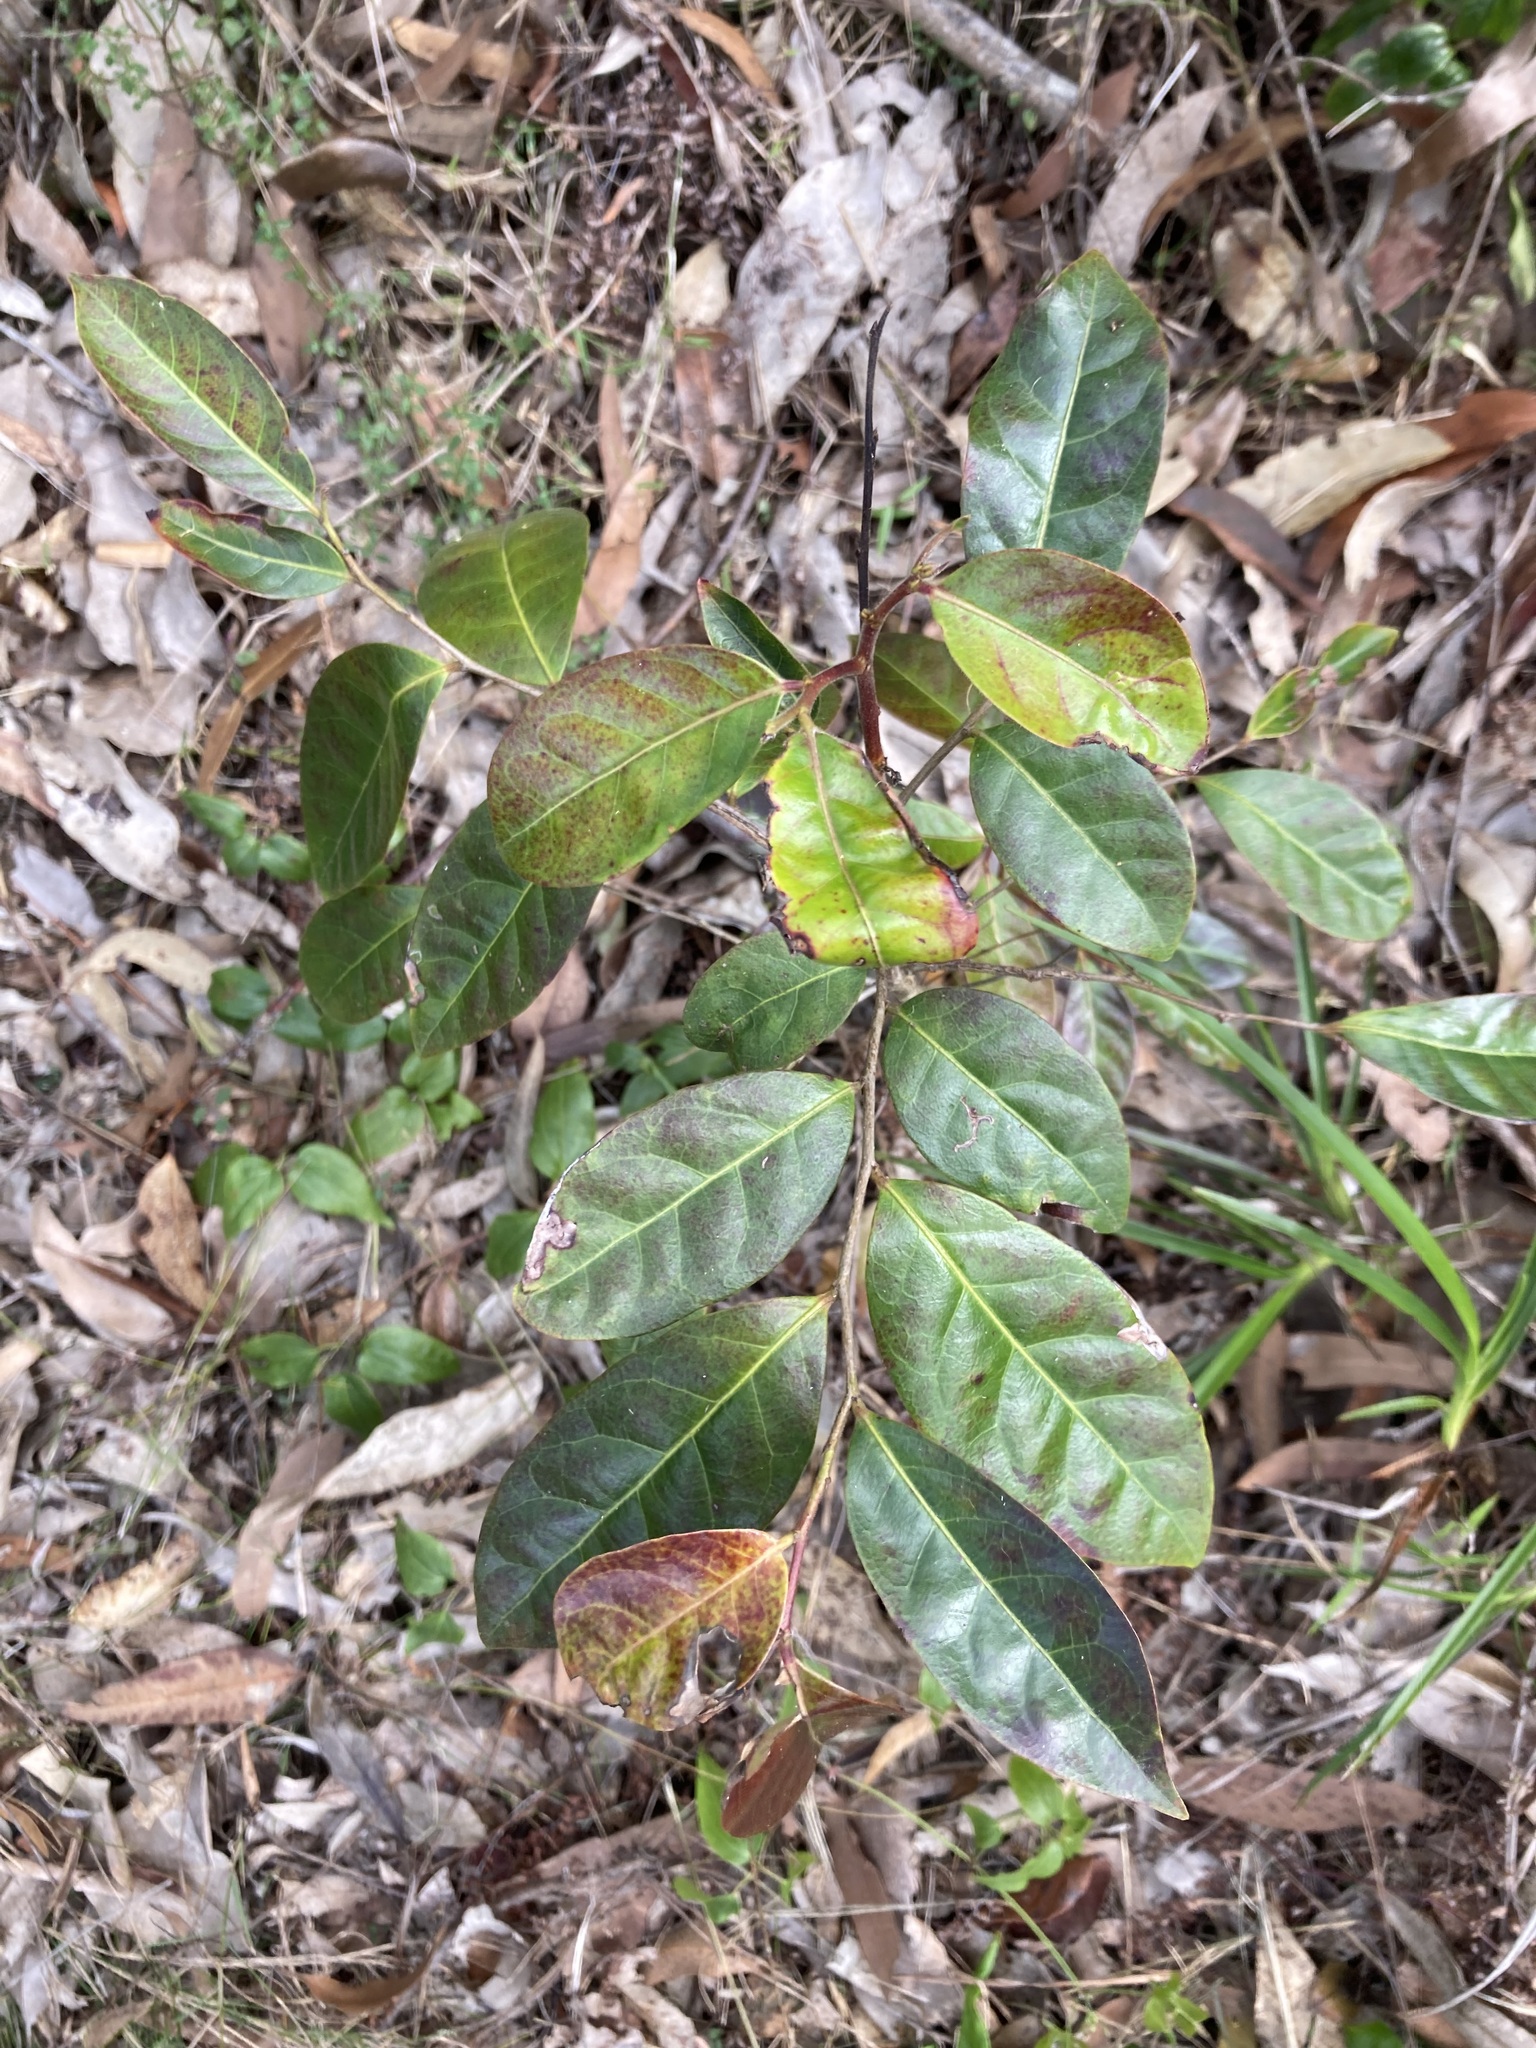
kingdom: Plantae
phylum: Tracheophyta
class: Magnoliopsida
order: Malpighiales
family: Phyllanthaceae
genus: Glochidion
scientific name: Glochidion ferdinandi
